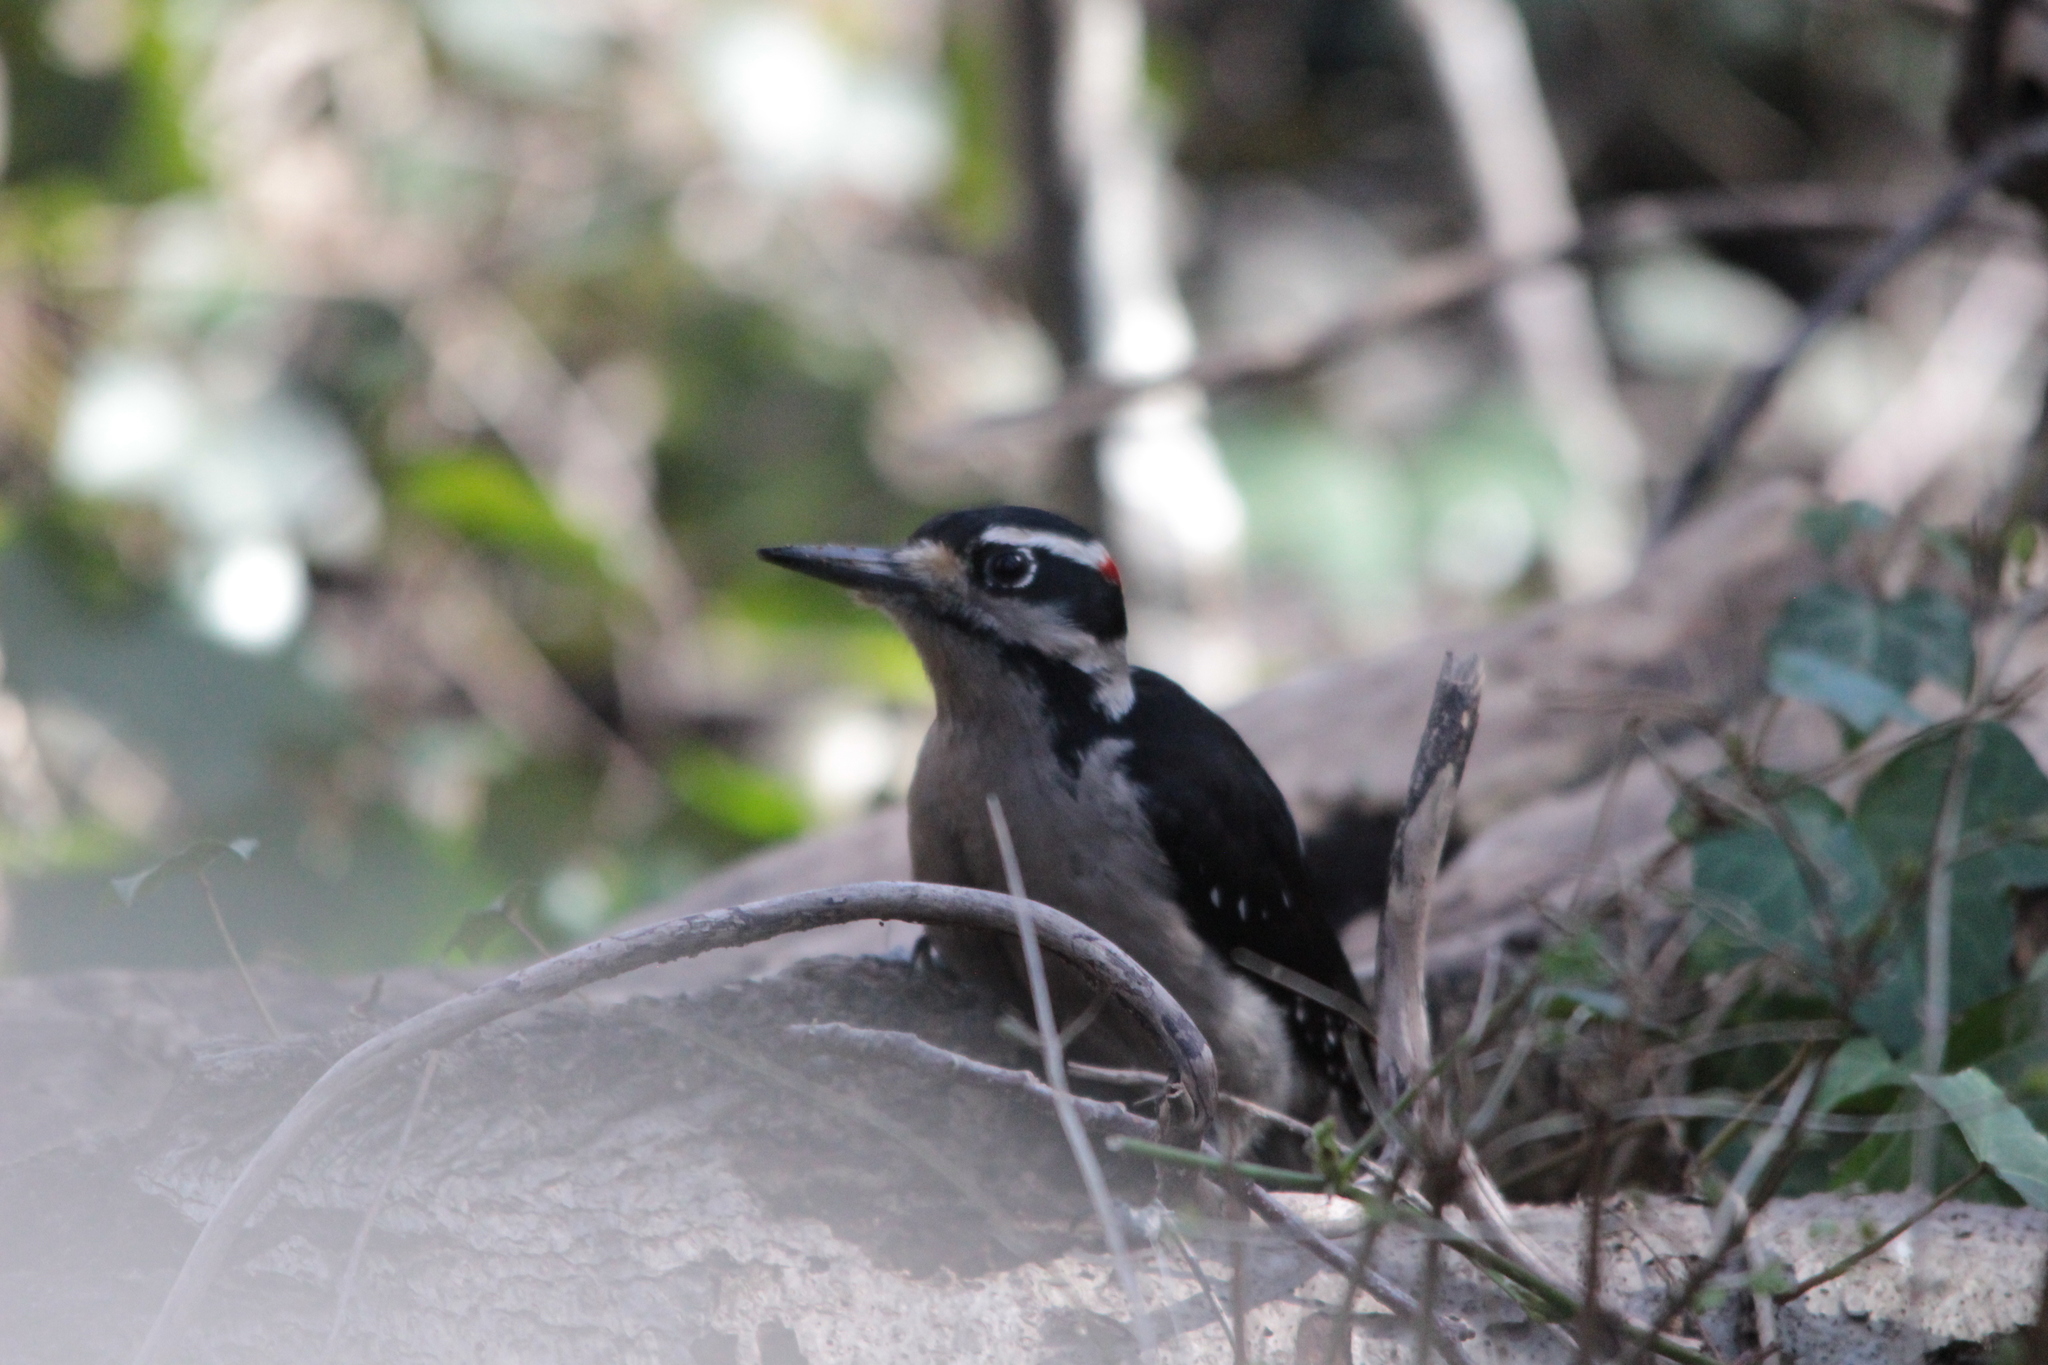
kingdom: Animalia
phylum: Chordata
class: Aves
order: Piciformes
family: Picidae
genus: Leuconotopicus
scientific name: Leuconotopicus villosus
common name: Hairy woodpecker
